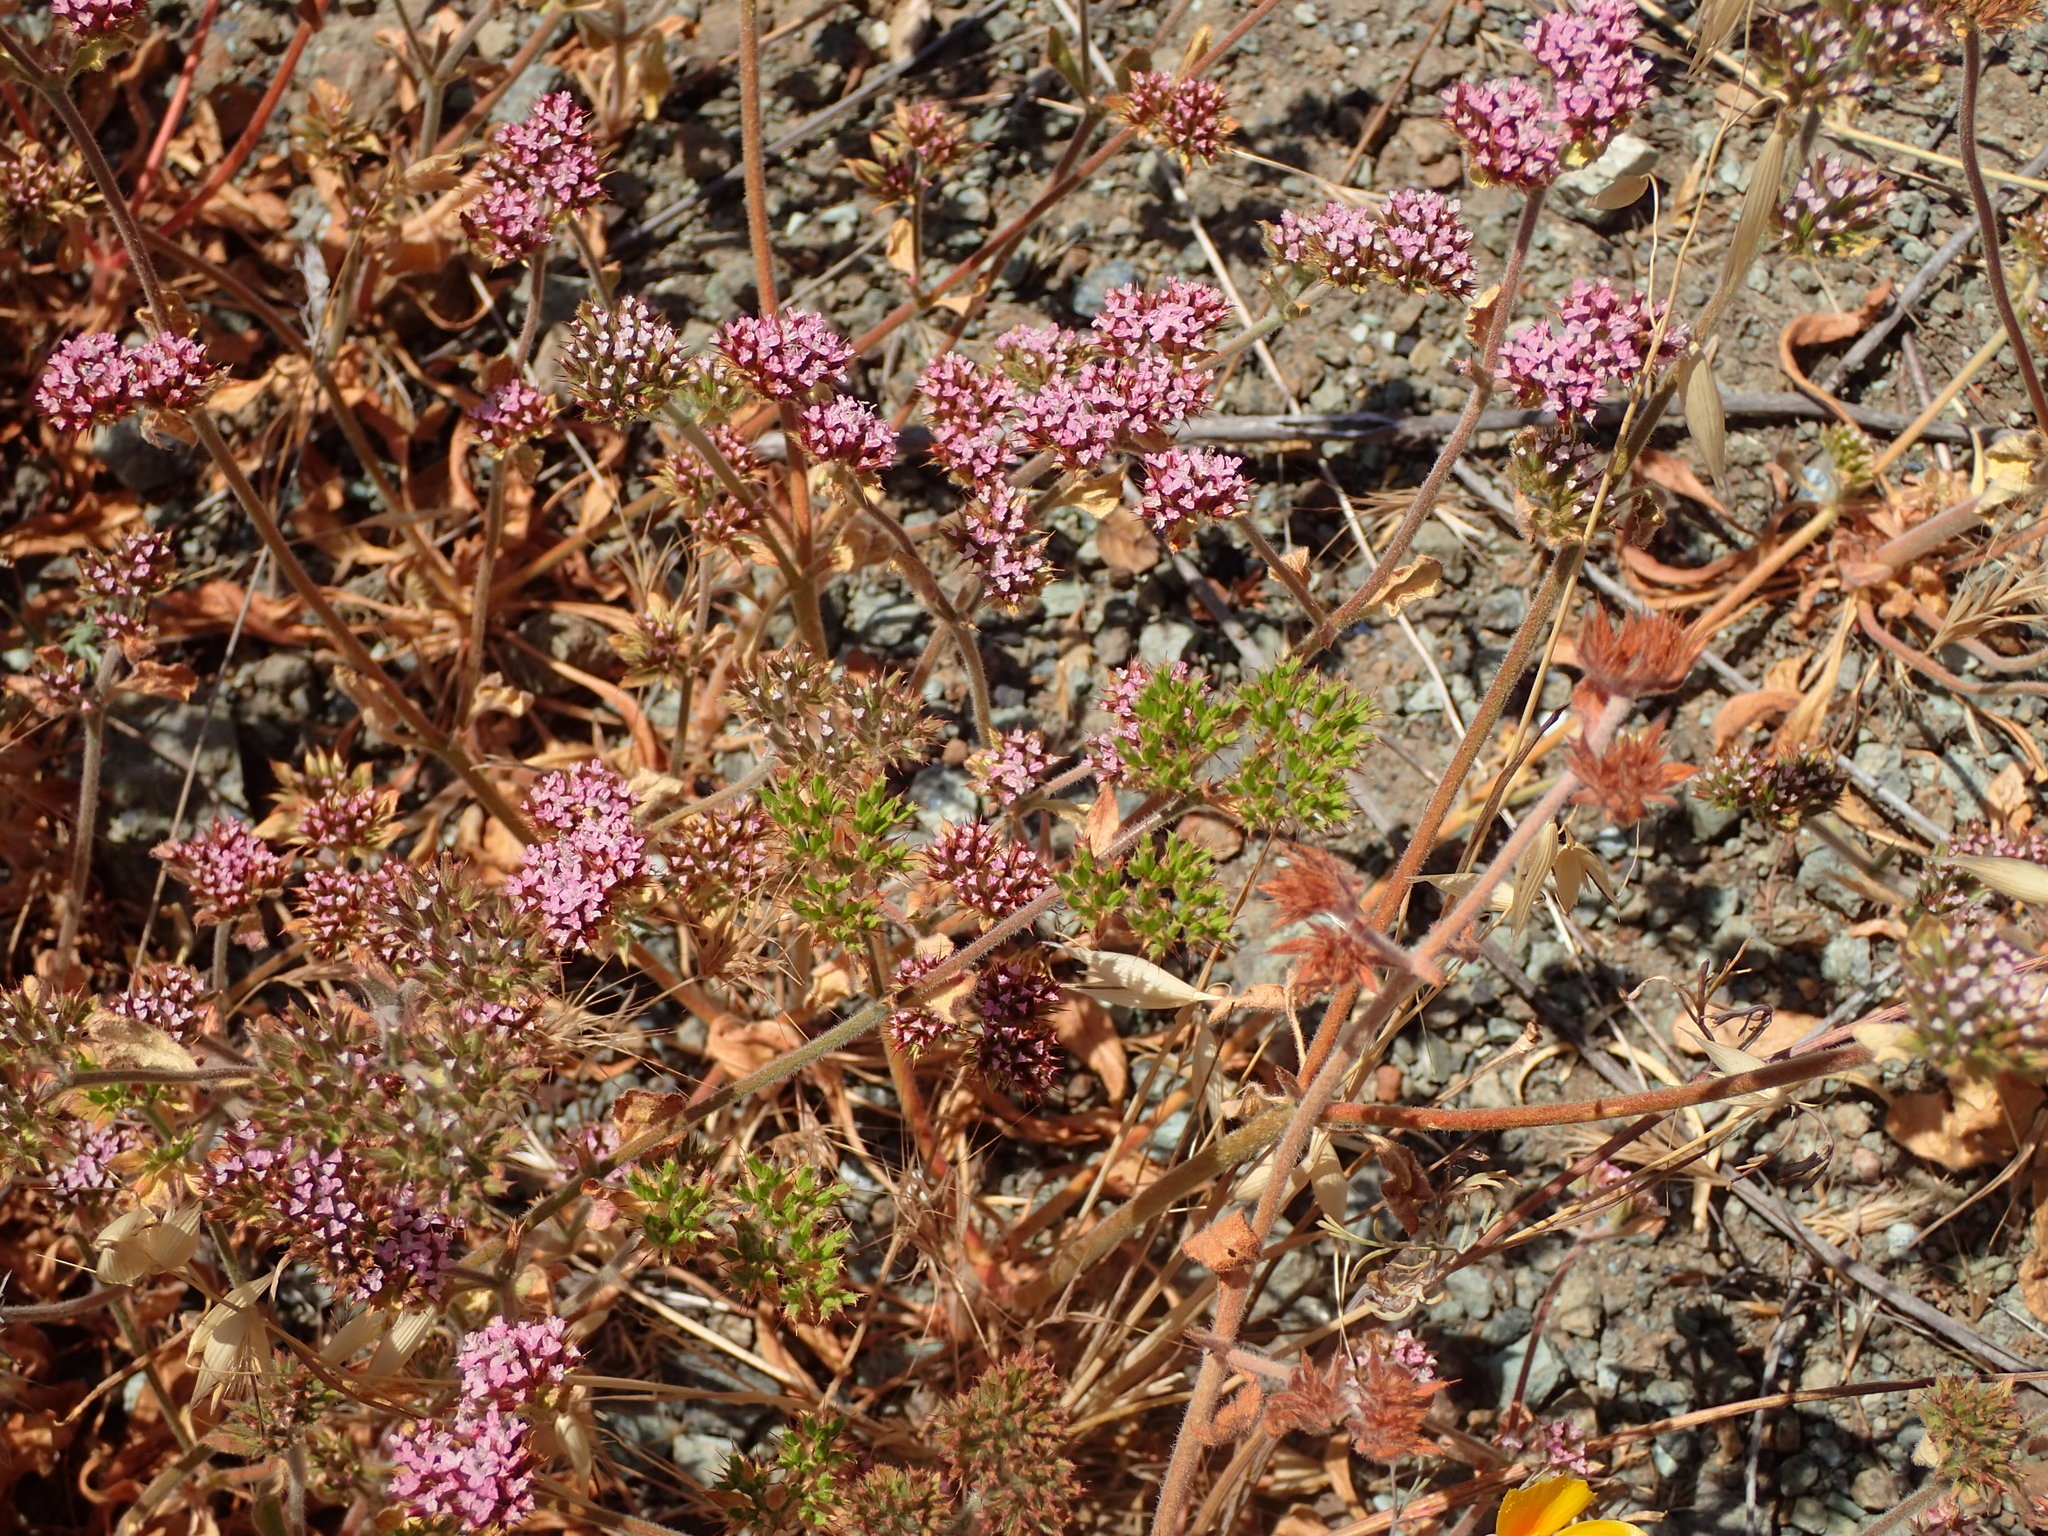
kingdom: Plantae
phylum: Tracheophyta
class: Magnoliopsida
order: Caryophyllales
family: Polygonaceae
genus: Chorizanthe
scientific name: Chorizanthe obovata
